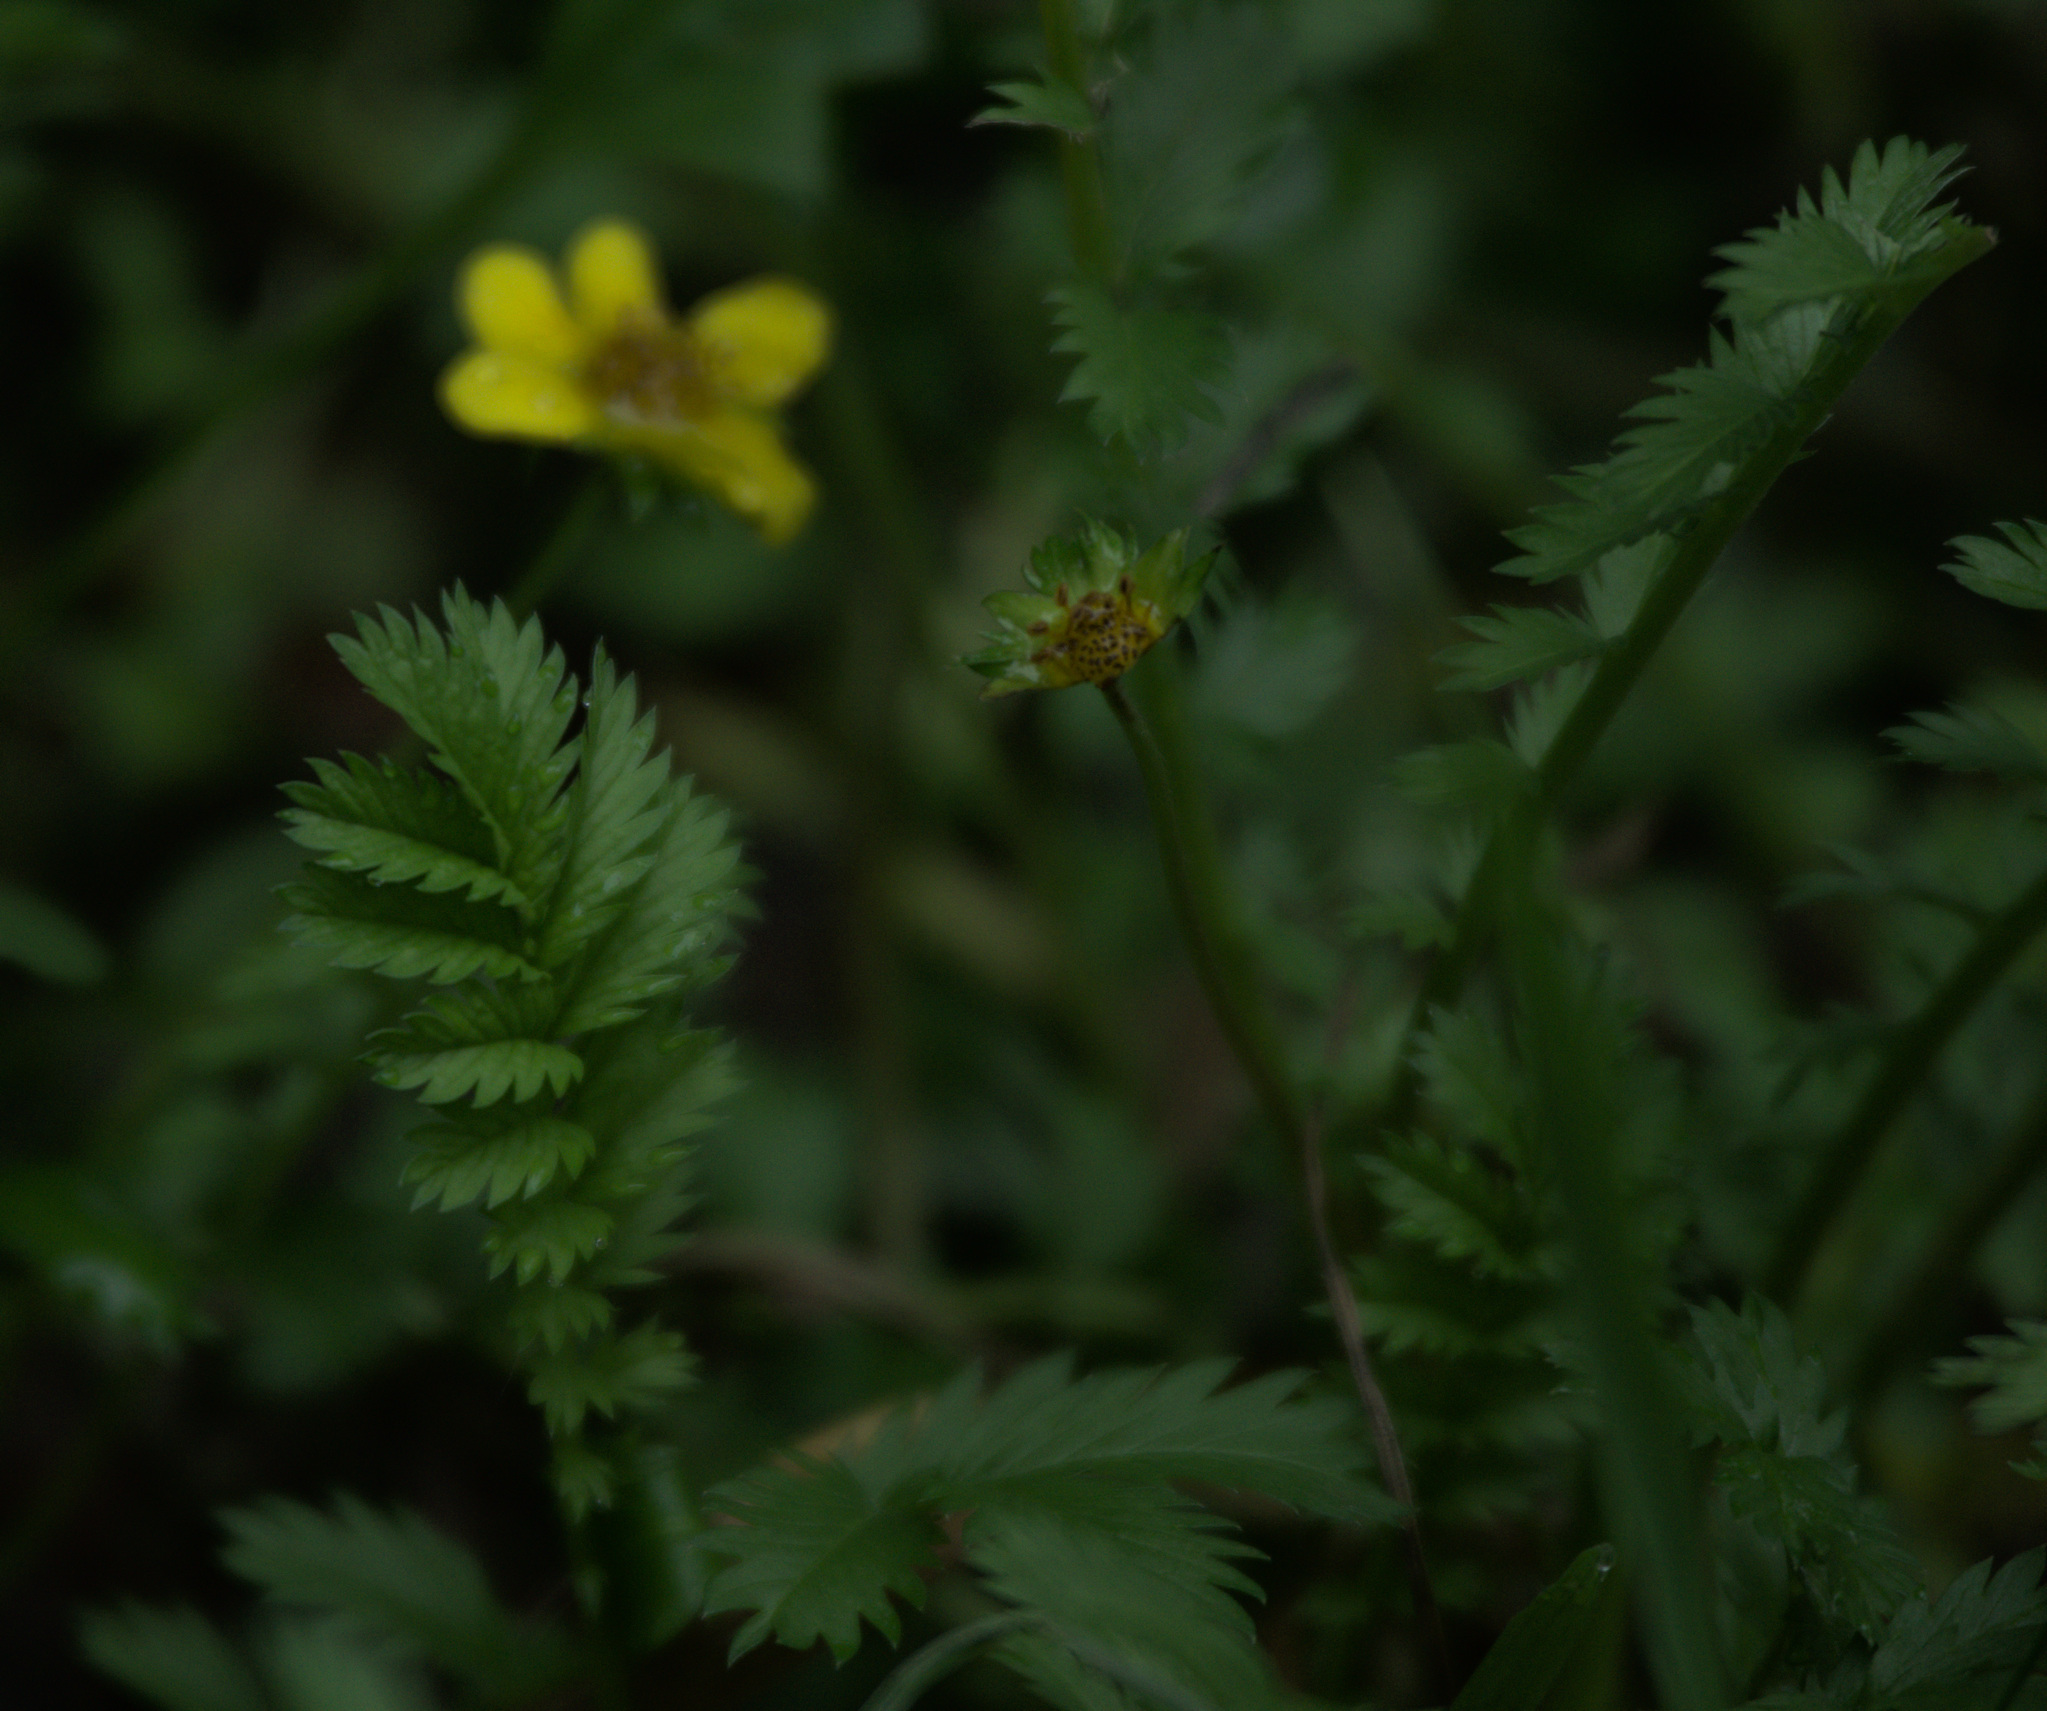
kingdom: Plantae
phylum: Tracheophyta
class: Magnoliopsida
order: Rosales
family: Rosaceae
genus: Argentina
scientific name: Argentina anserina
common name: Common silverweed
